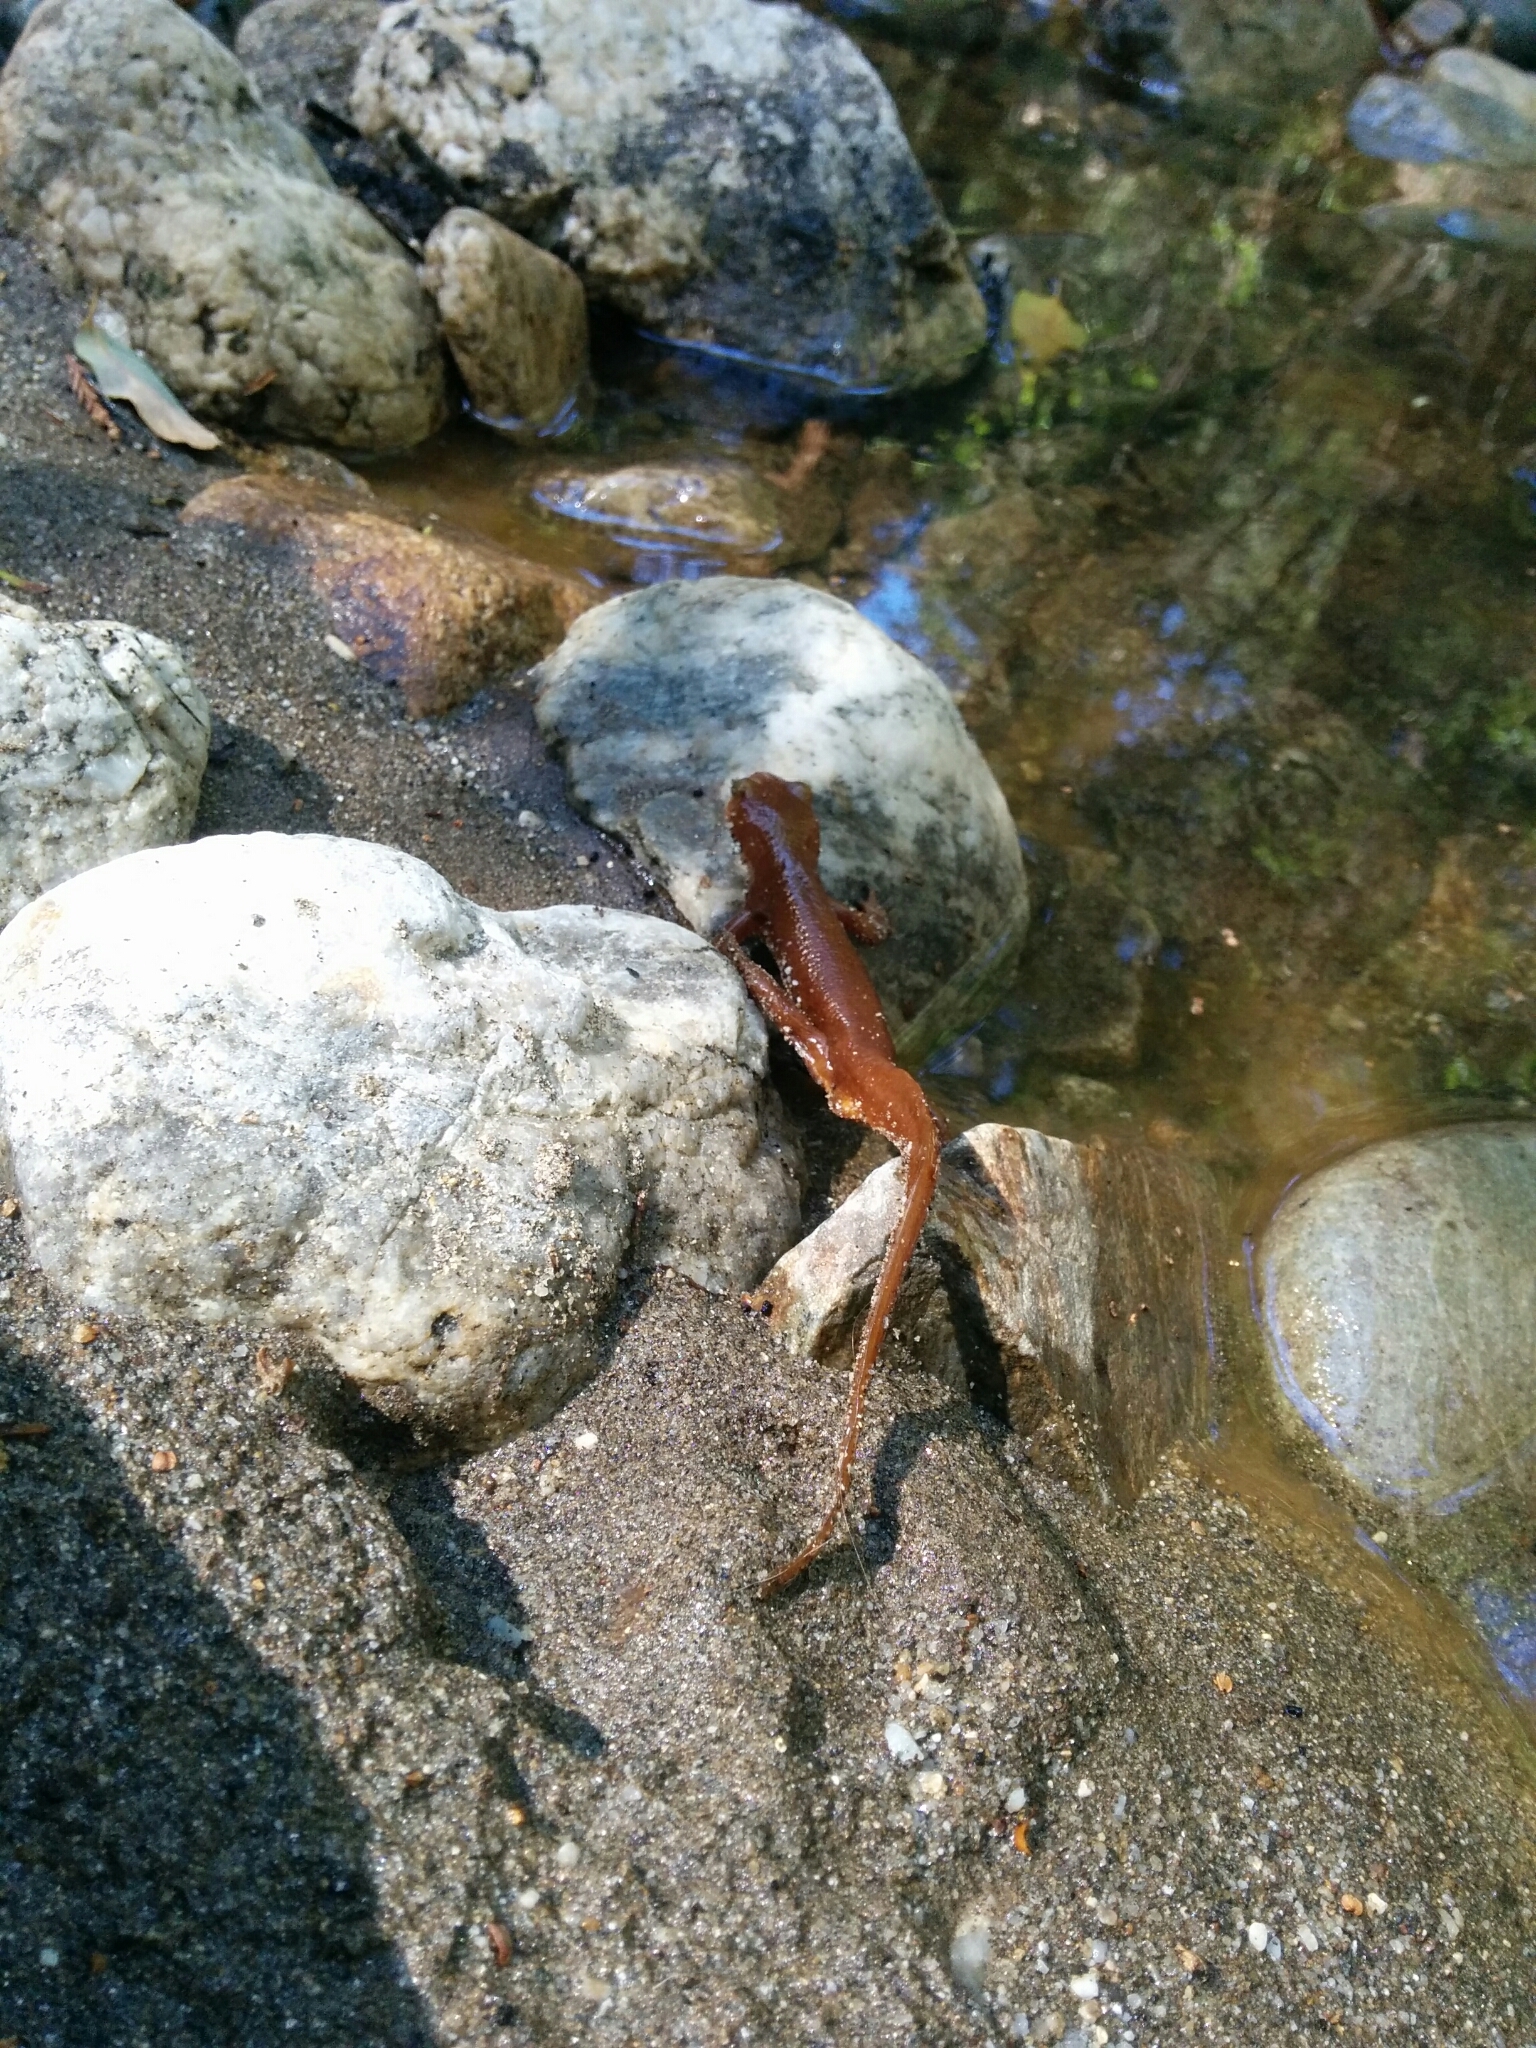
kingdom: Animalia
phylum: Chordata
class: Amphibia
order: Caudata
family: Salamandridae
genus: Taricha
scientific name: Taricha torosa
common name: California newt
